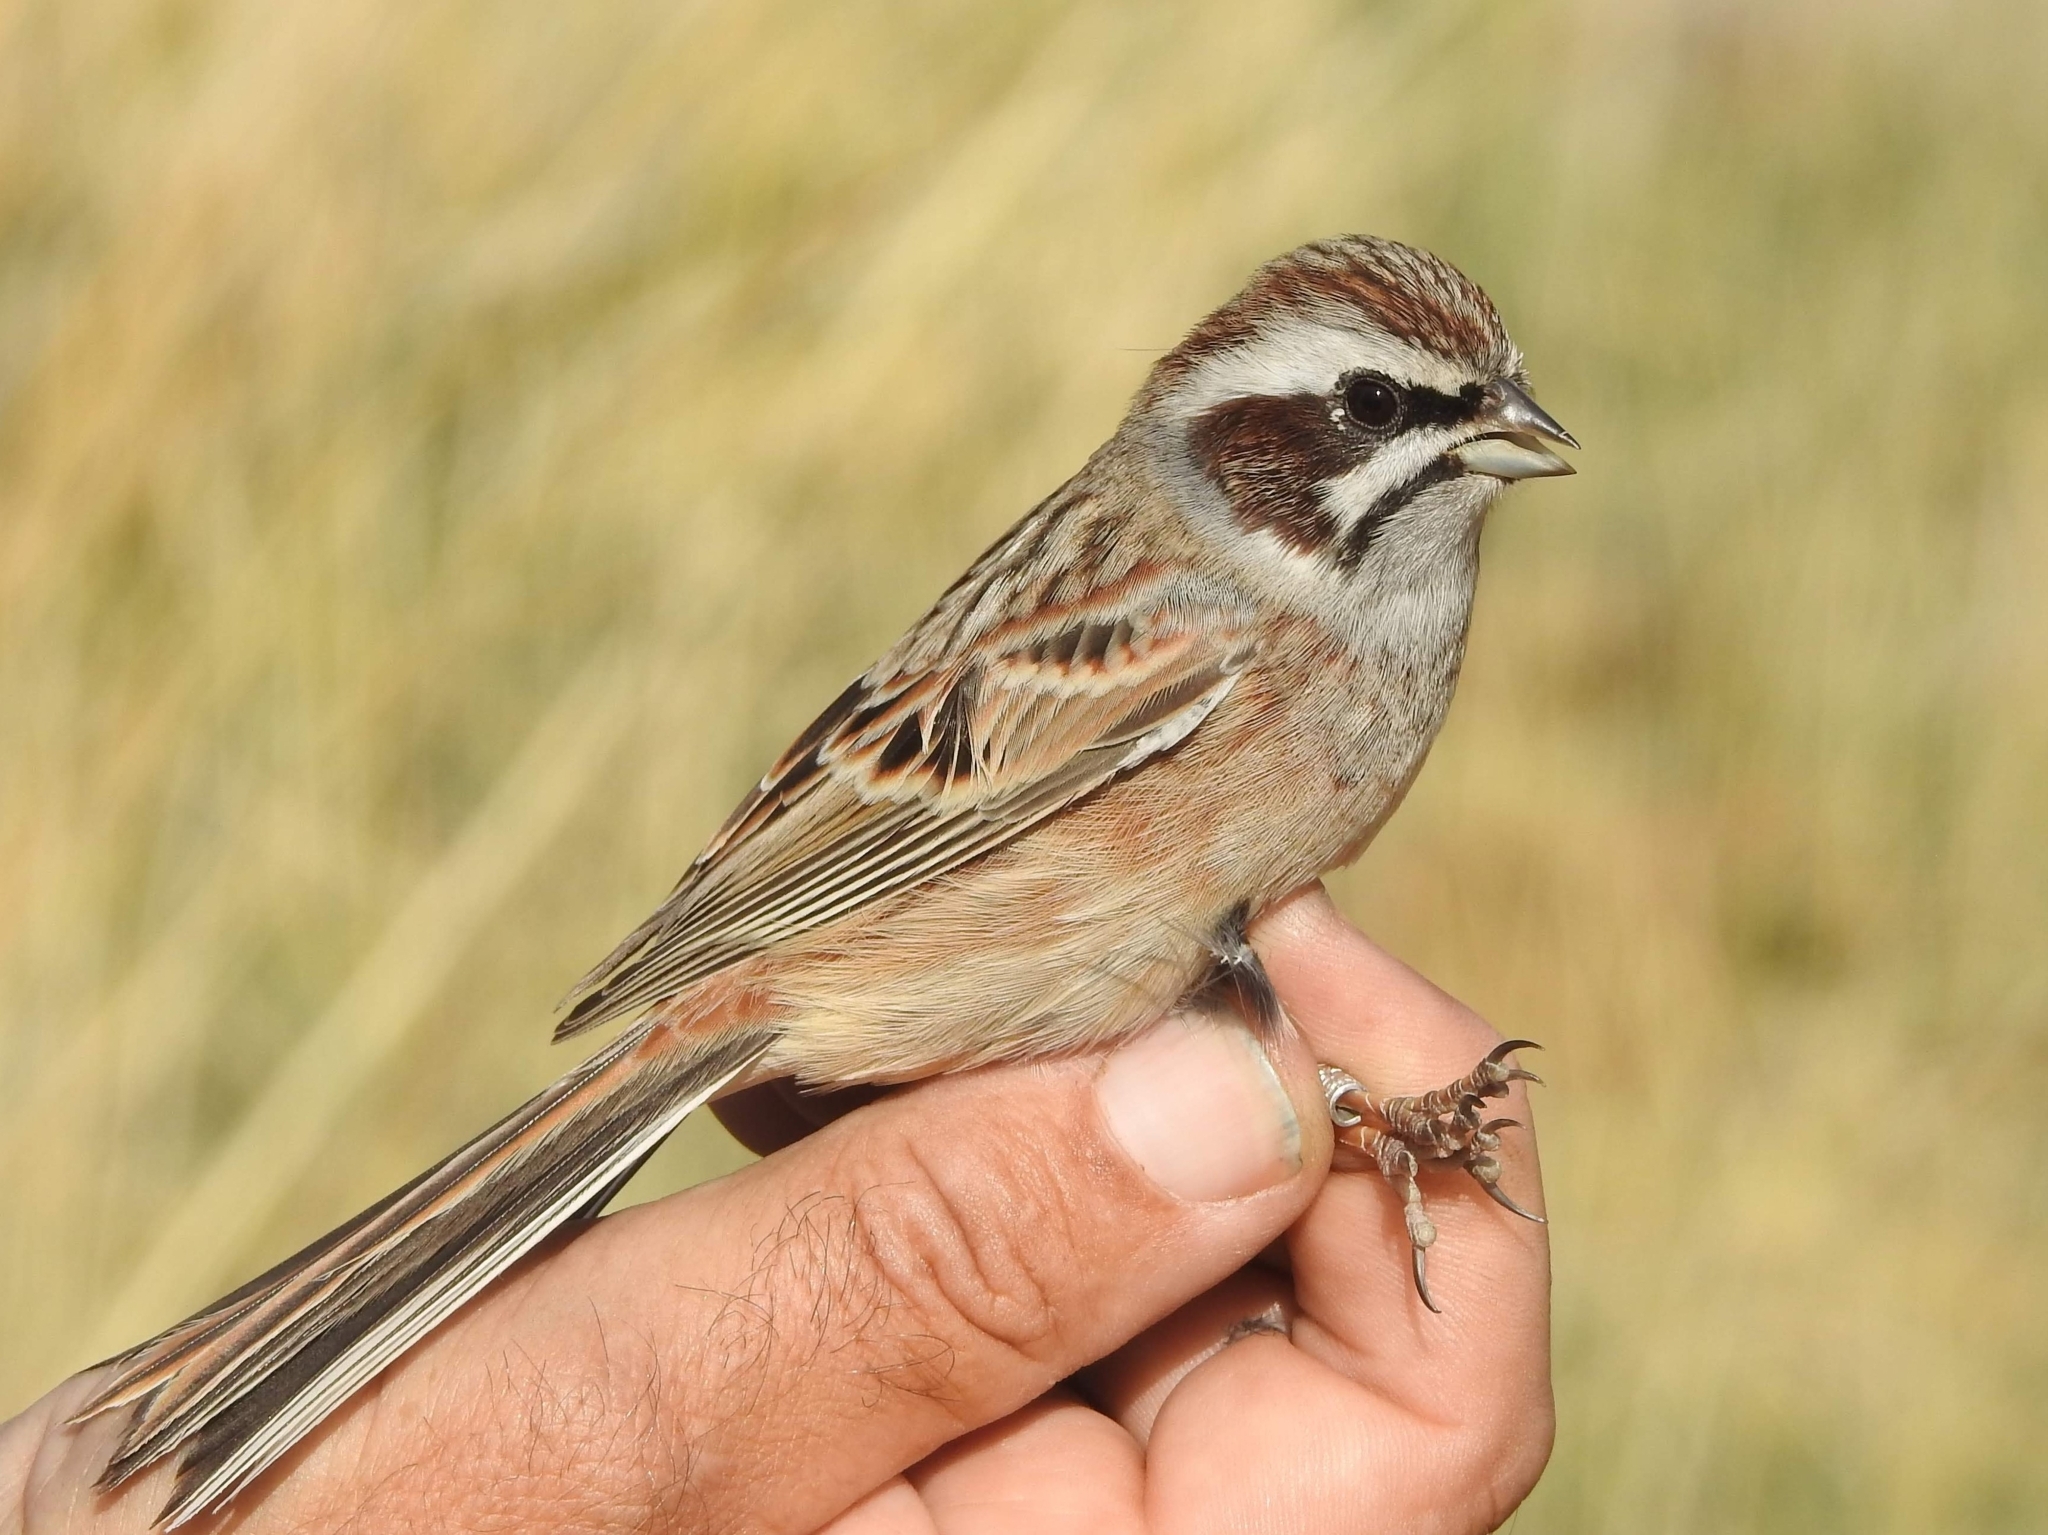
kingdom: Animalia
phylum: Chordata
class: Aves
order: Passeriformes
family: Emberizidae
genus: Emberiza
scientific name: Emberiza cioides
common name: Meadow bunting
